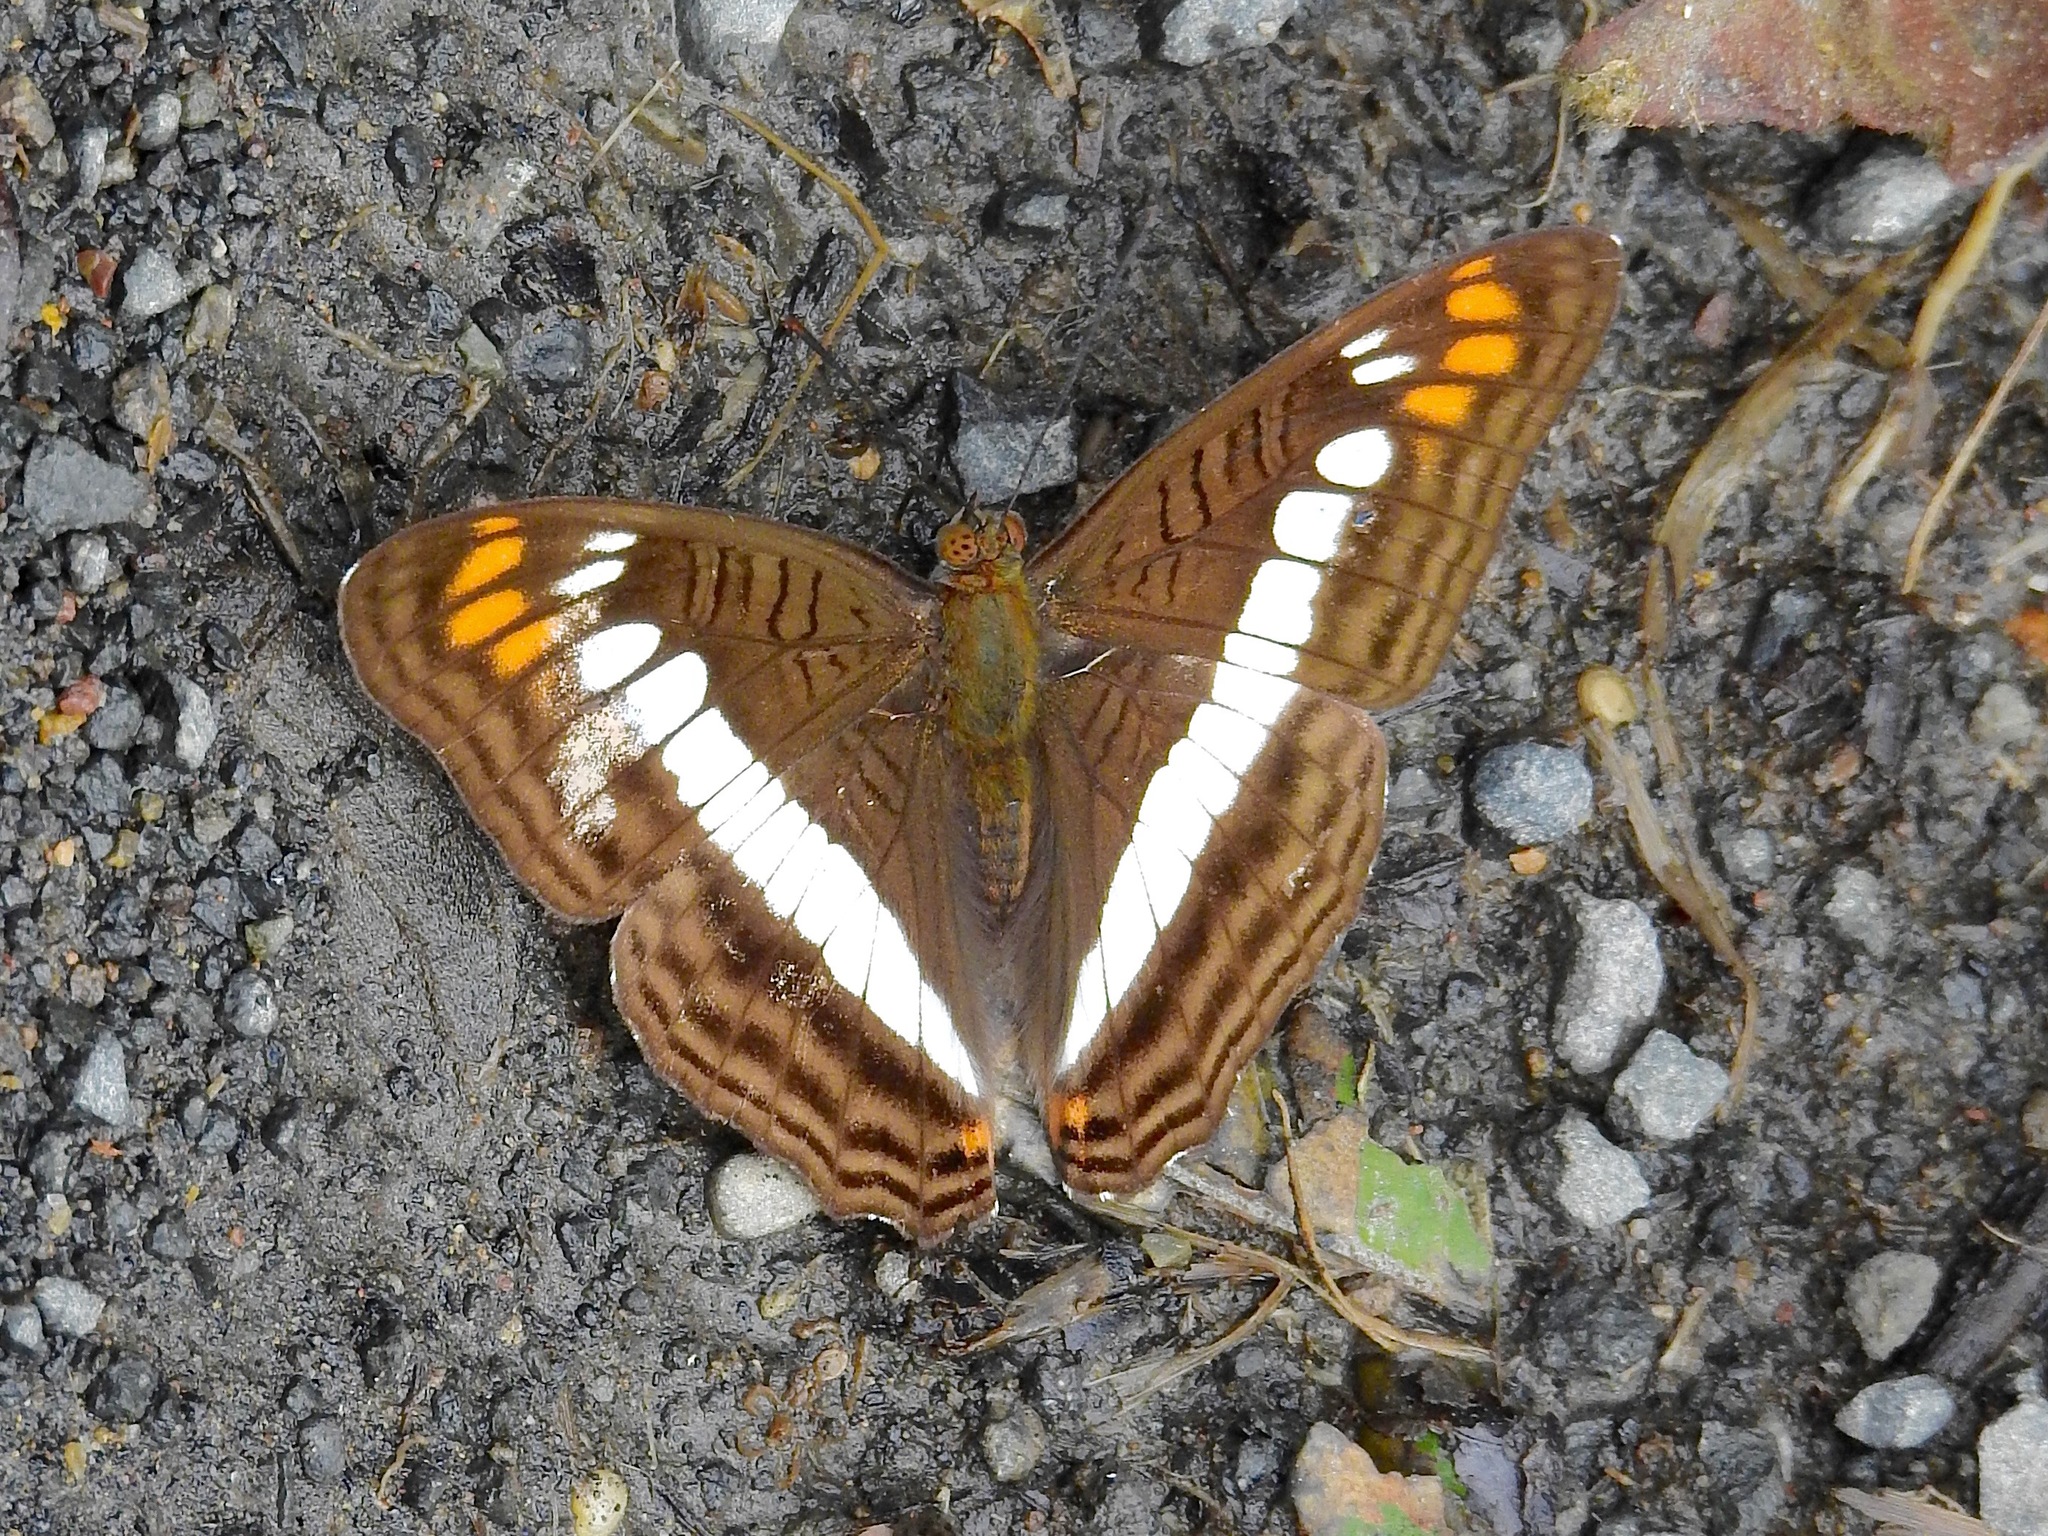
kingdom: Animalia
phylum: Arthropoda
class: Insecta
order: Lepidoptera
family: Nymphalidae
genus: Limenitis
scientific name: Limenitis alala
